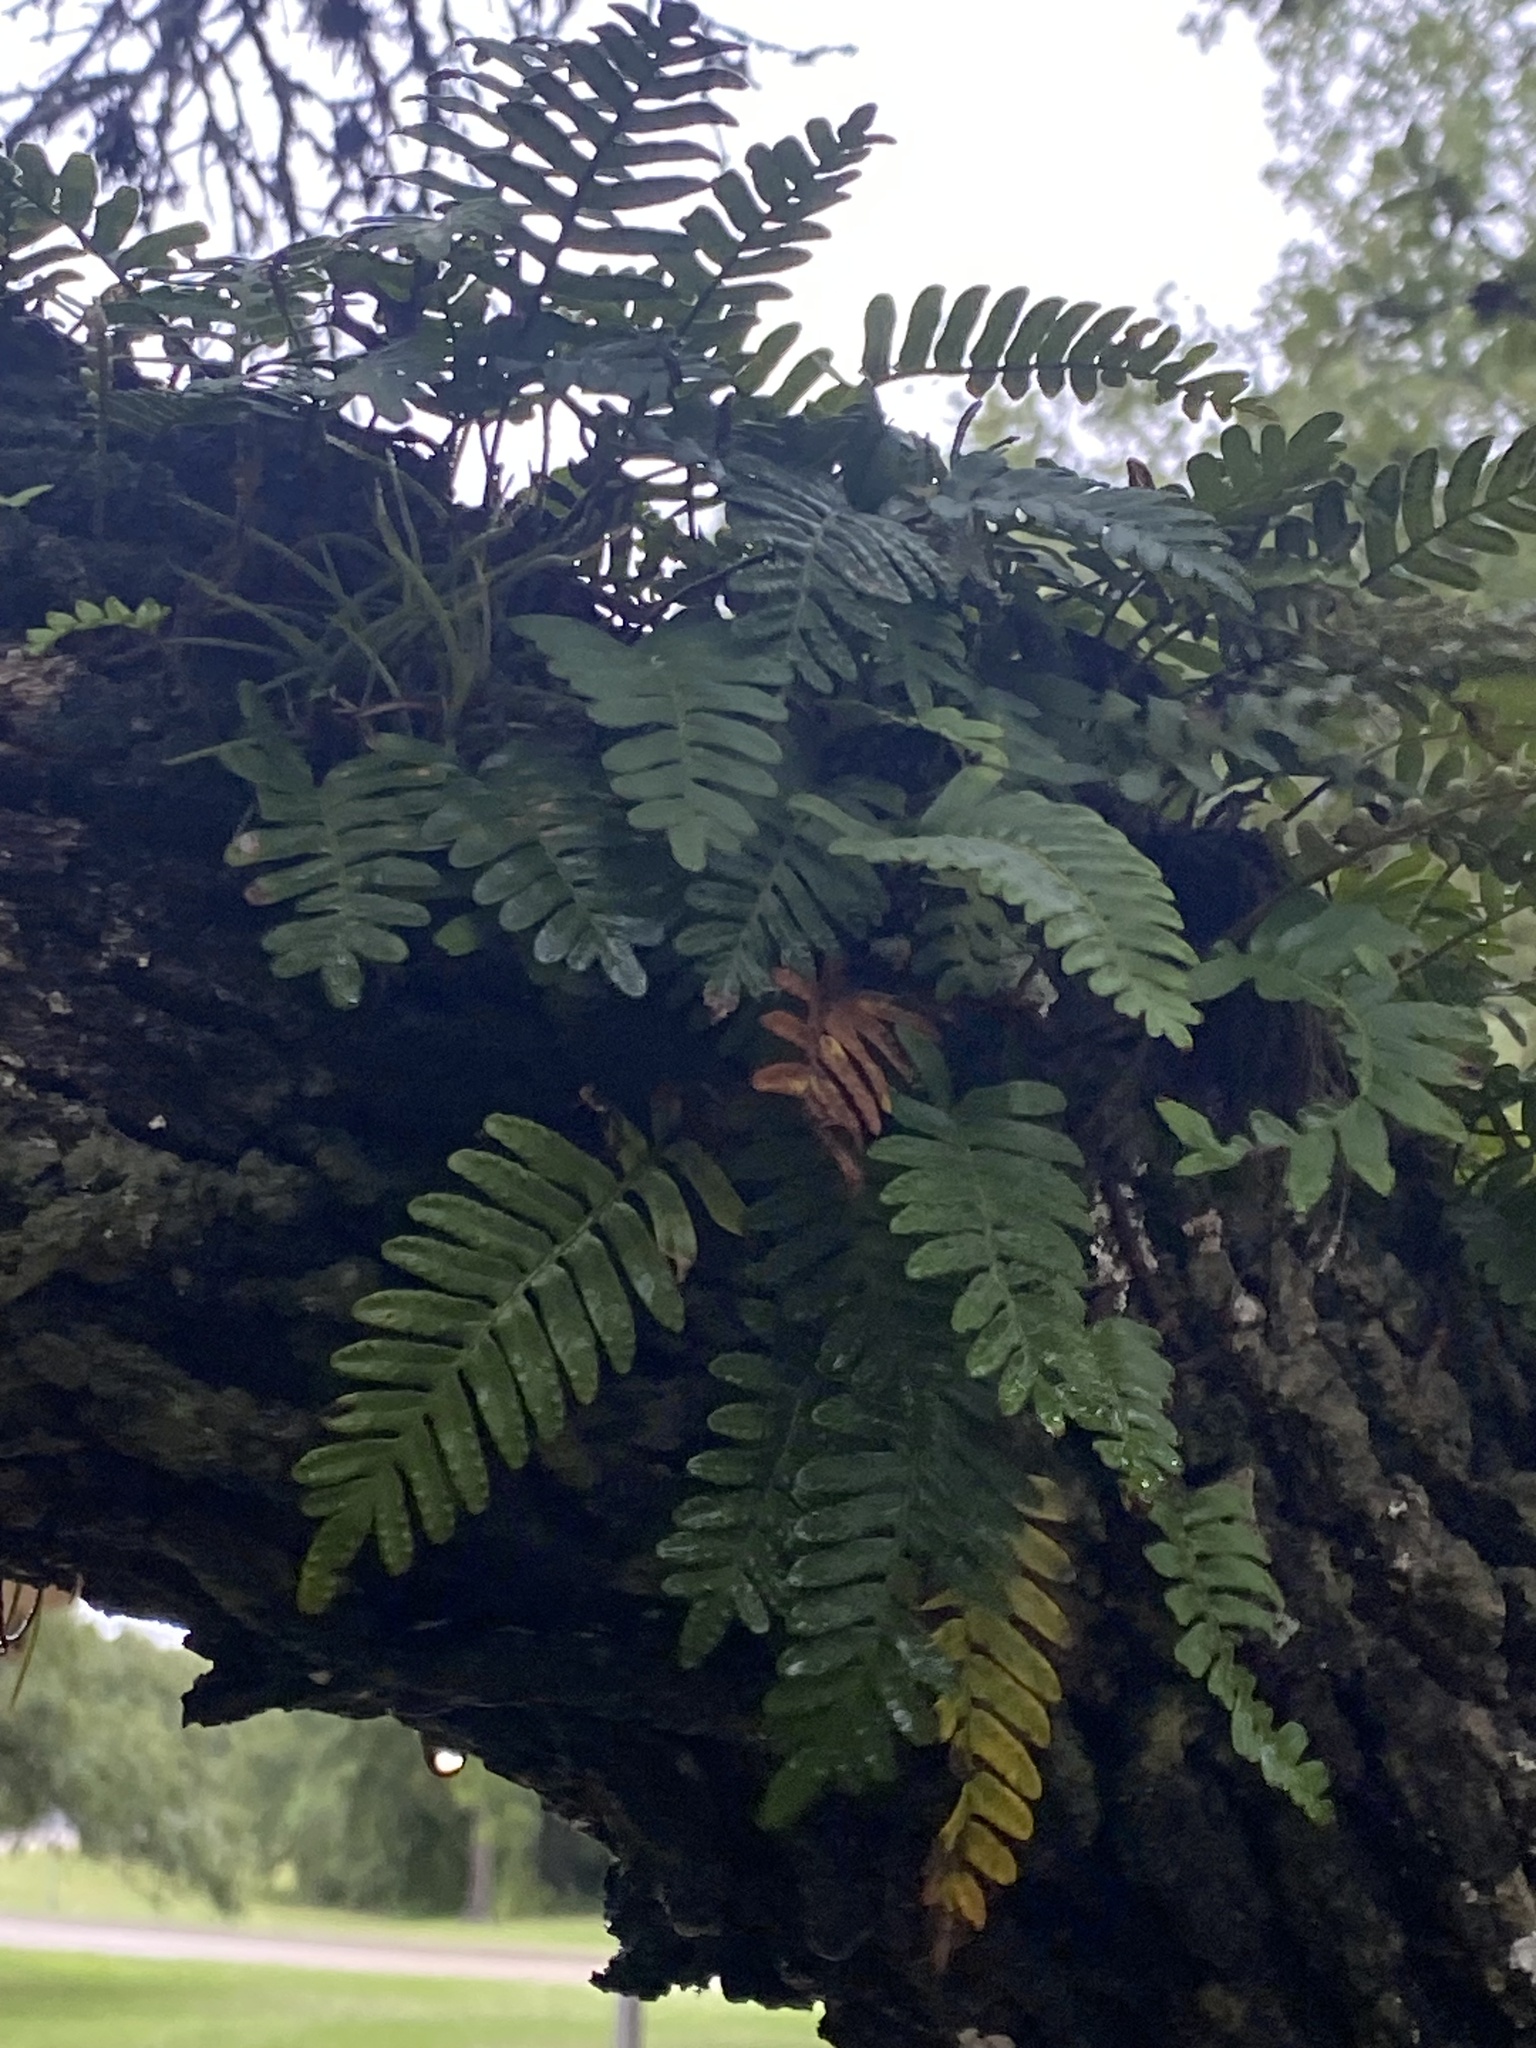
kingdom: Plantae
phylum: Tracheophyta
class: Polypodiopsida
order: Polypodiales
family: Polypodiaceae
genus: Pleopeltis
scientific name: Pleopeltis michauxiana
